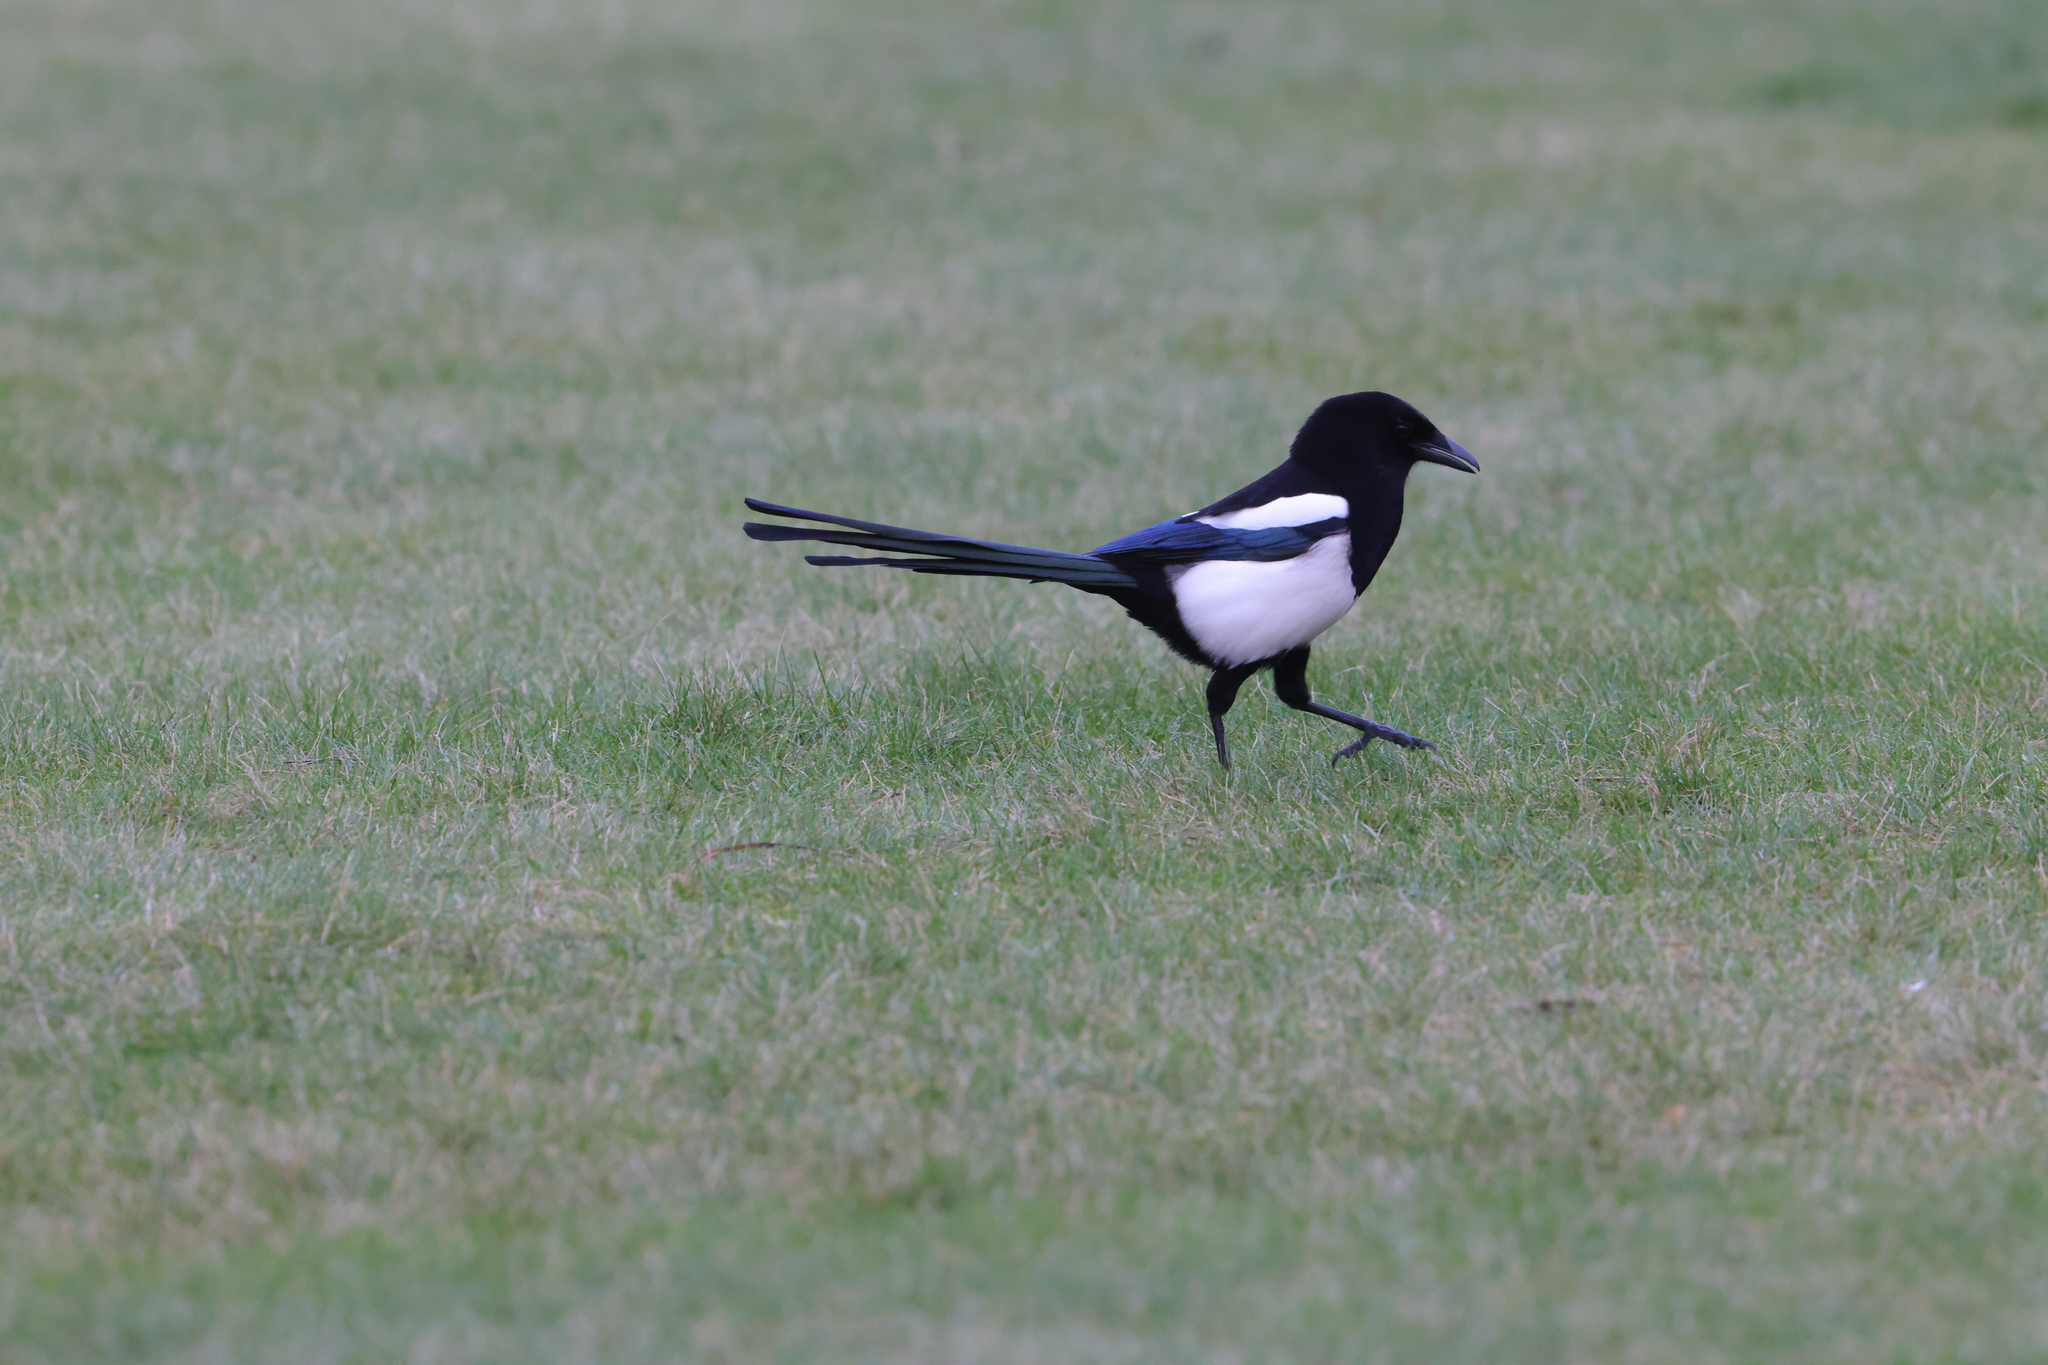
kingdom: Animalia
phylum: Chordata
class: Aves
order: Passeriformes
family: Corvidae
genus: Pica
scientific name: Pica pica
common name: Eurasian magpie
